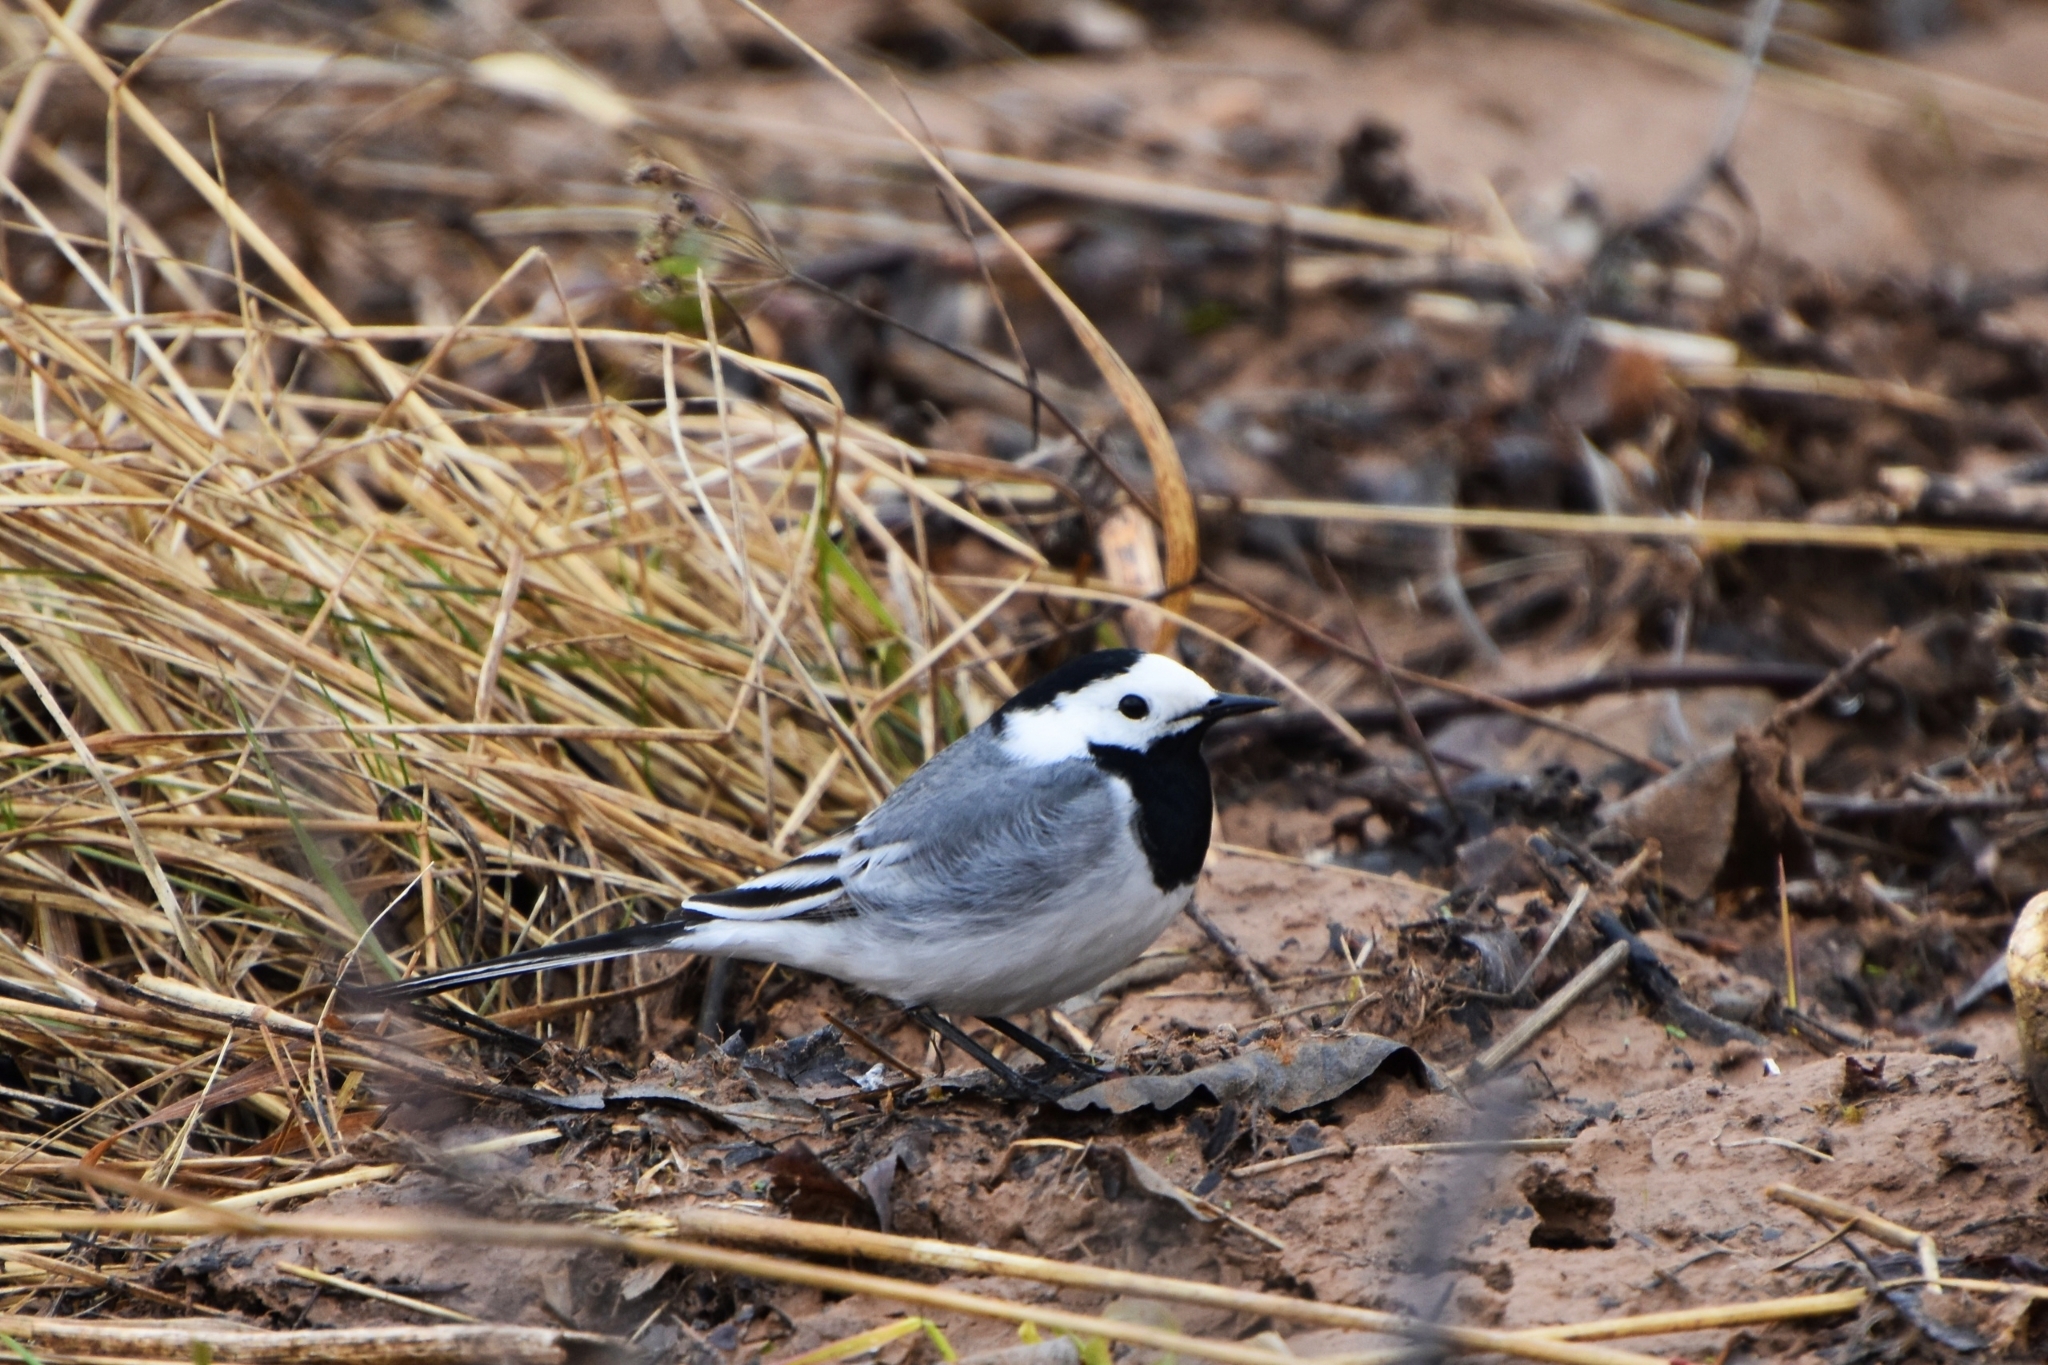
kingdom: Animalia
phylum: Chordata
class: Aves
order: Passeriformes
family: Motacillidae
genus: Motacilla
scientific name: Motacilla alba
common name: White wagtail
